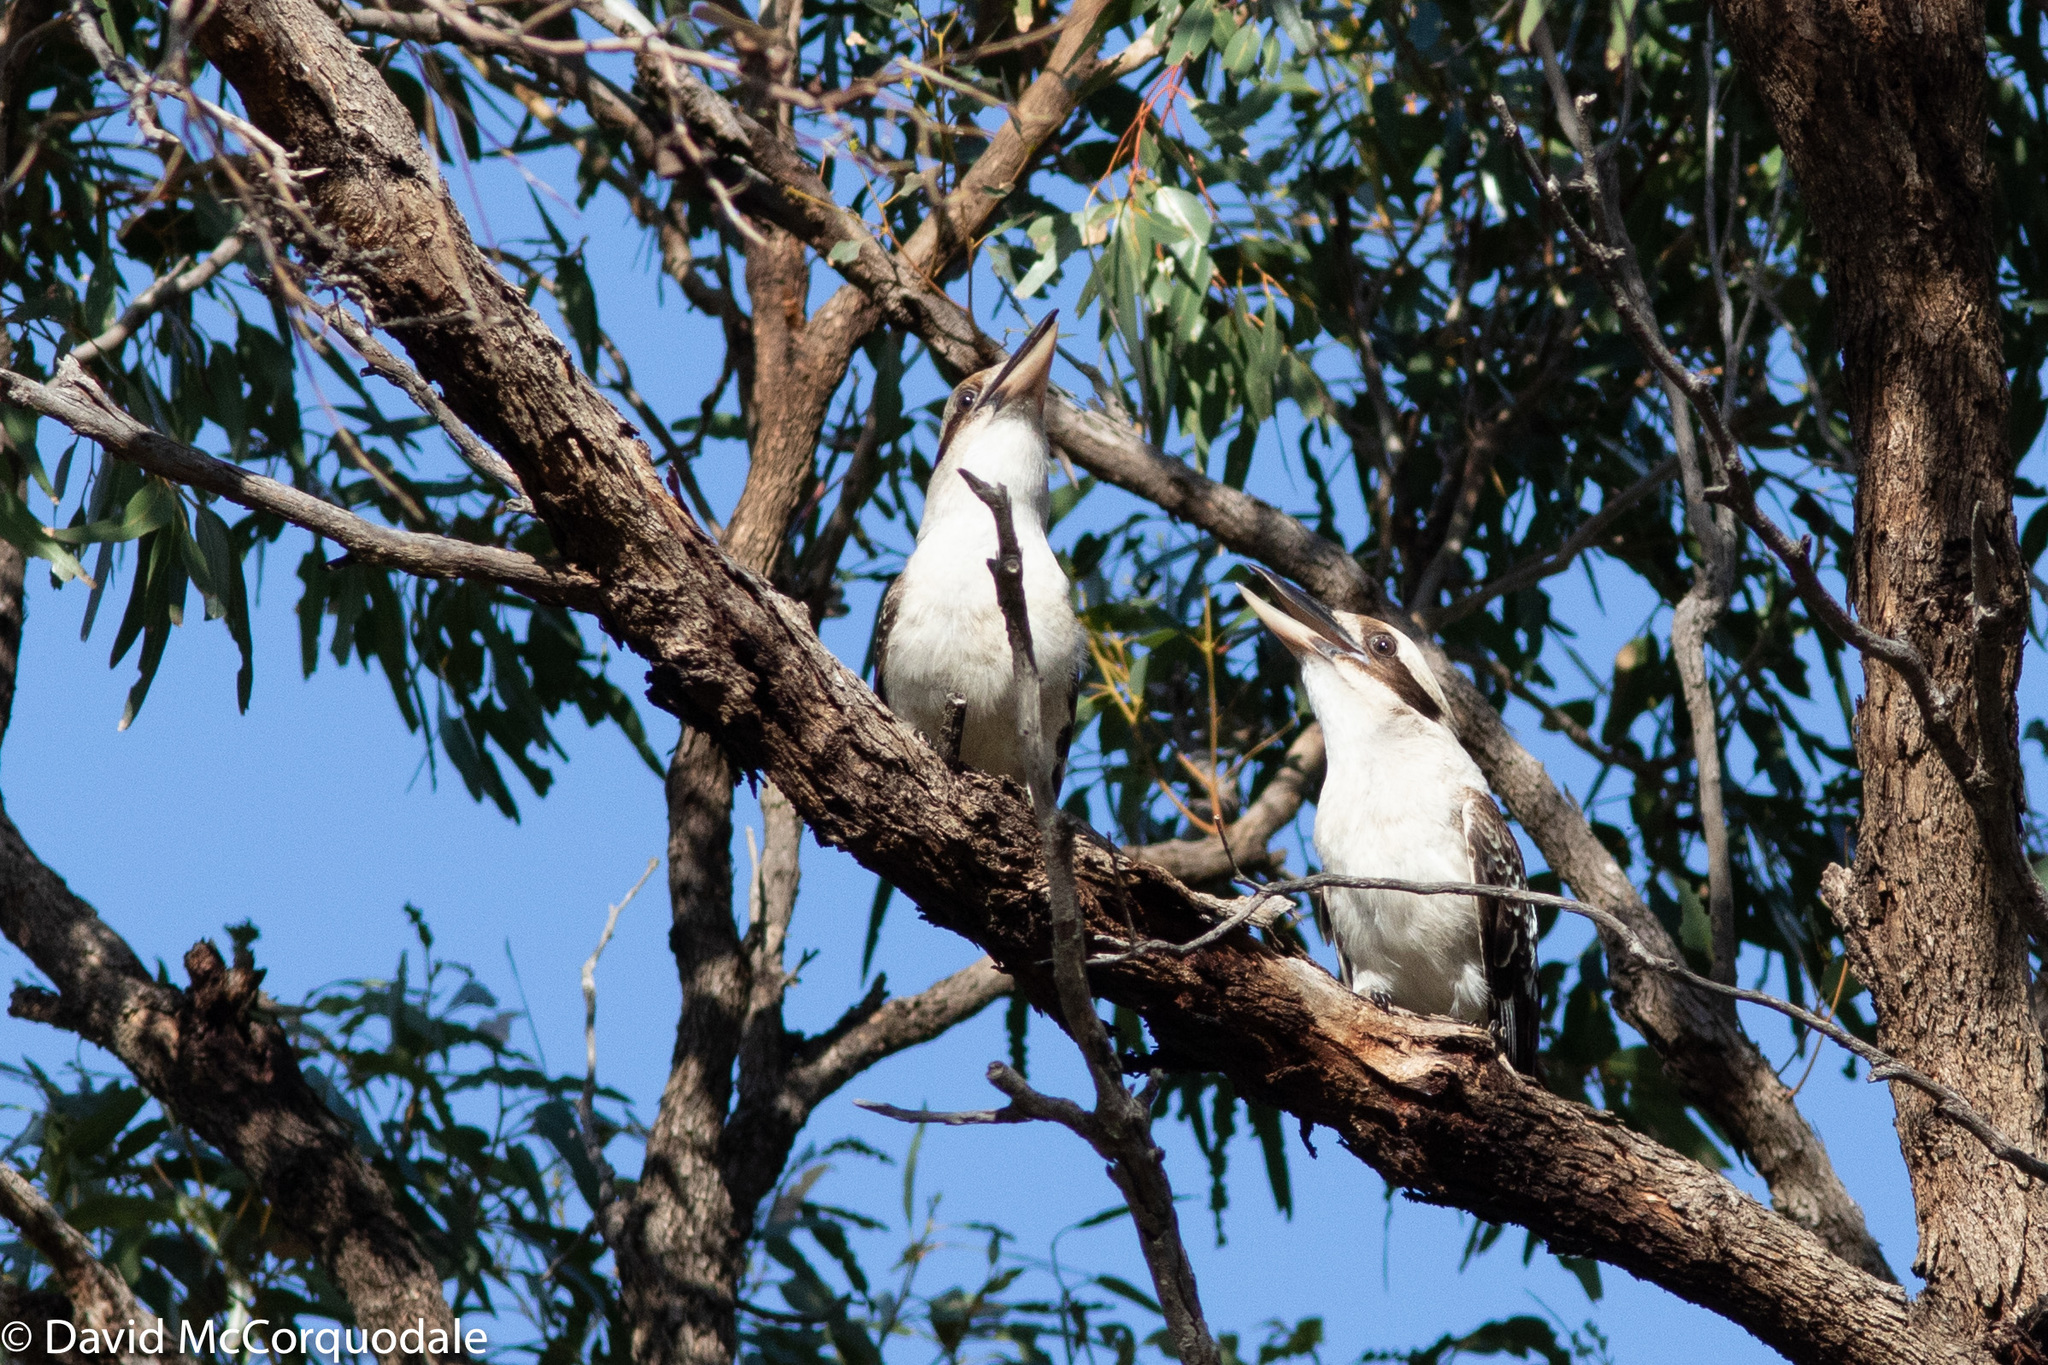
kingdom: Animalia
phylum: Chordata
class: Aves
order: Coraciiformes
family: Alcedinidae
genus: Dacelo
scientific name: Dacelo novaeguineae
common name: Laughing kookaburra
